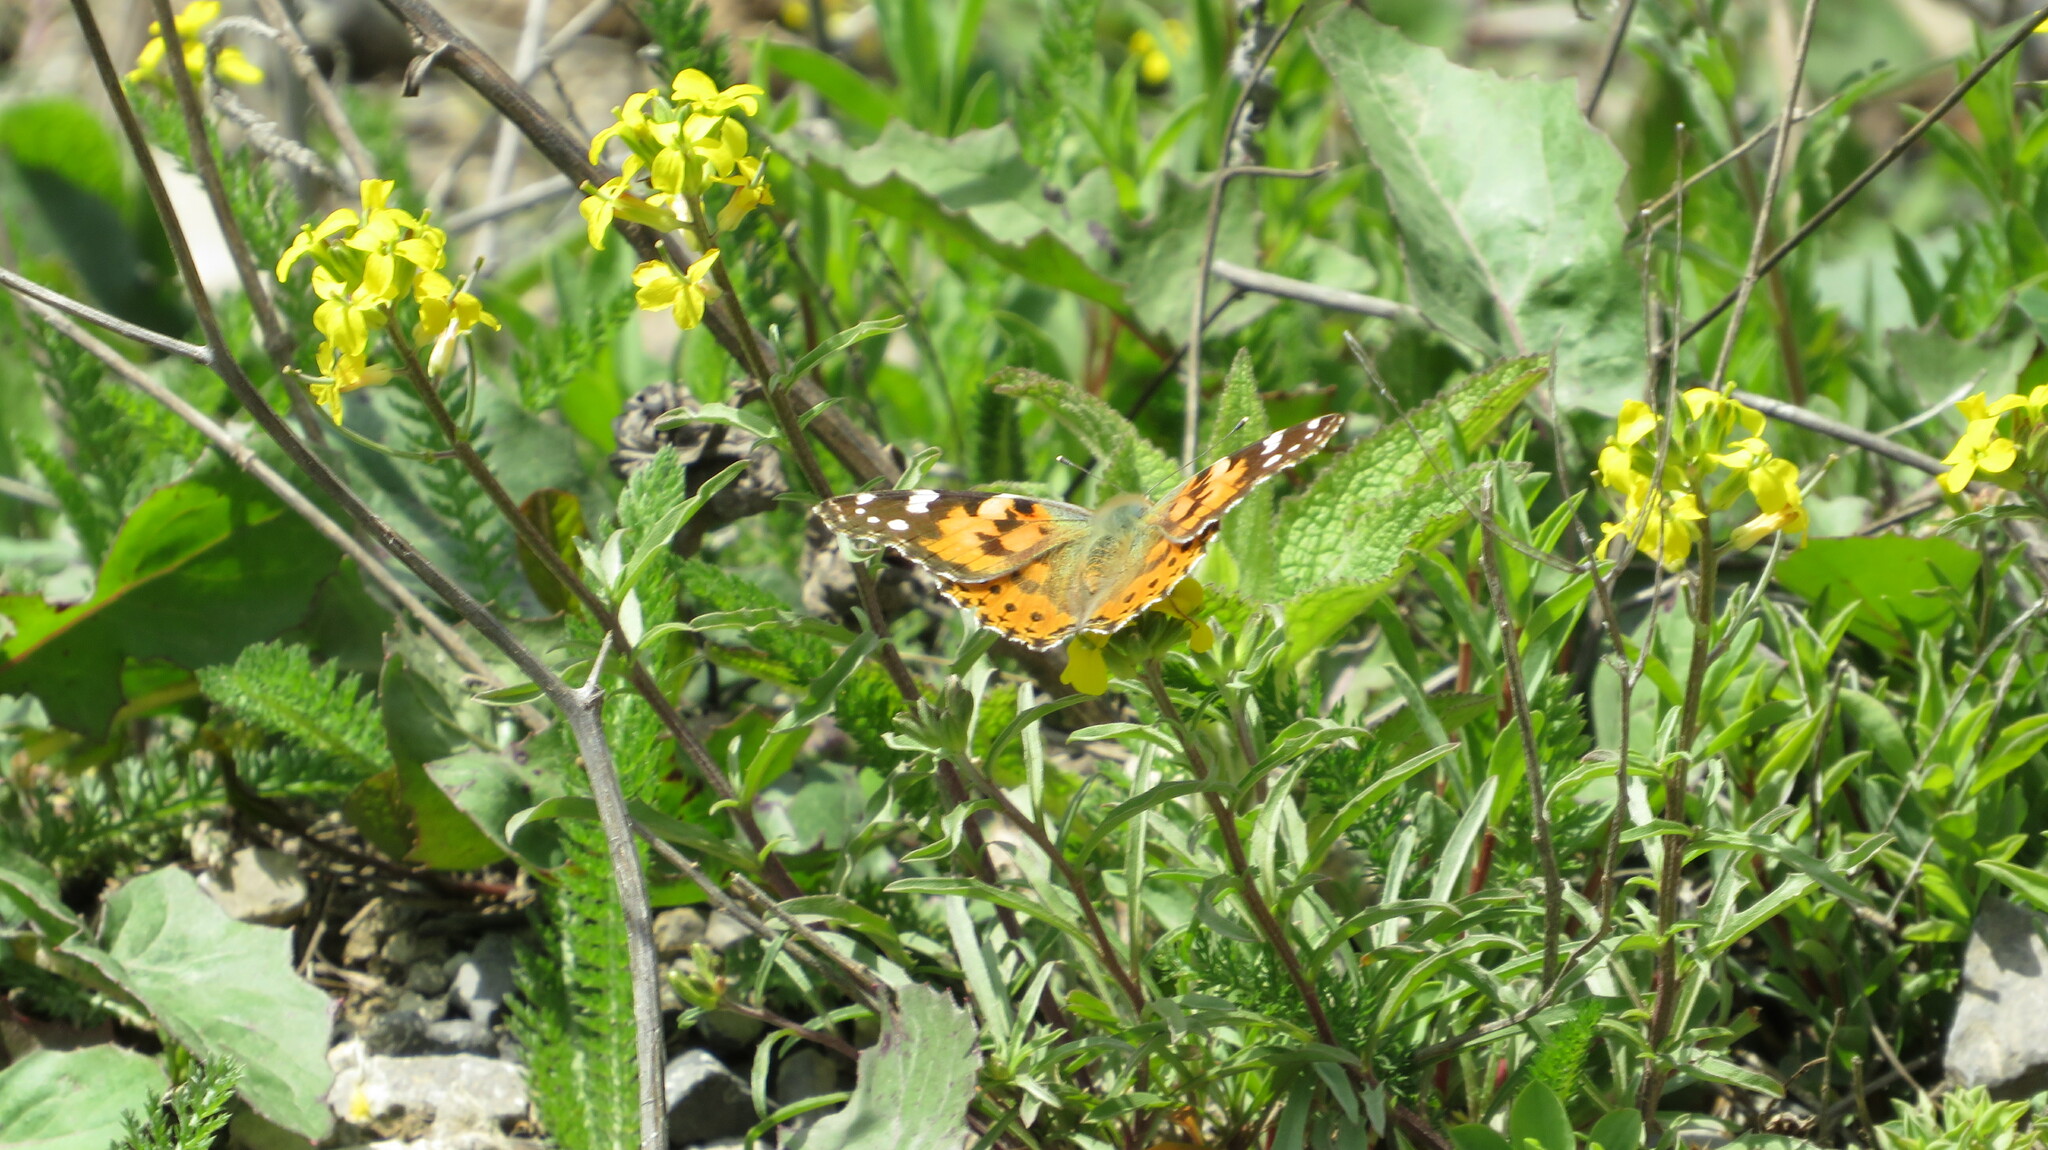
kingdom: Animalia
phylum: Arthropoda
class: Insecta
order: Lepidoptera
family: Nymphalidae
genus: Vanessa
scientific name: Vanessa cardui
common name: Painted lady
